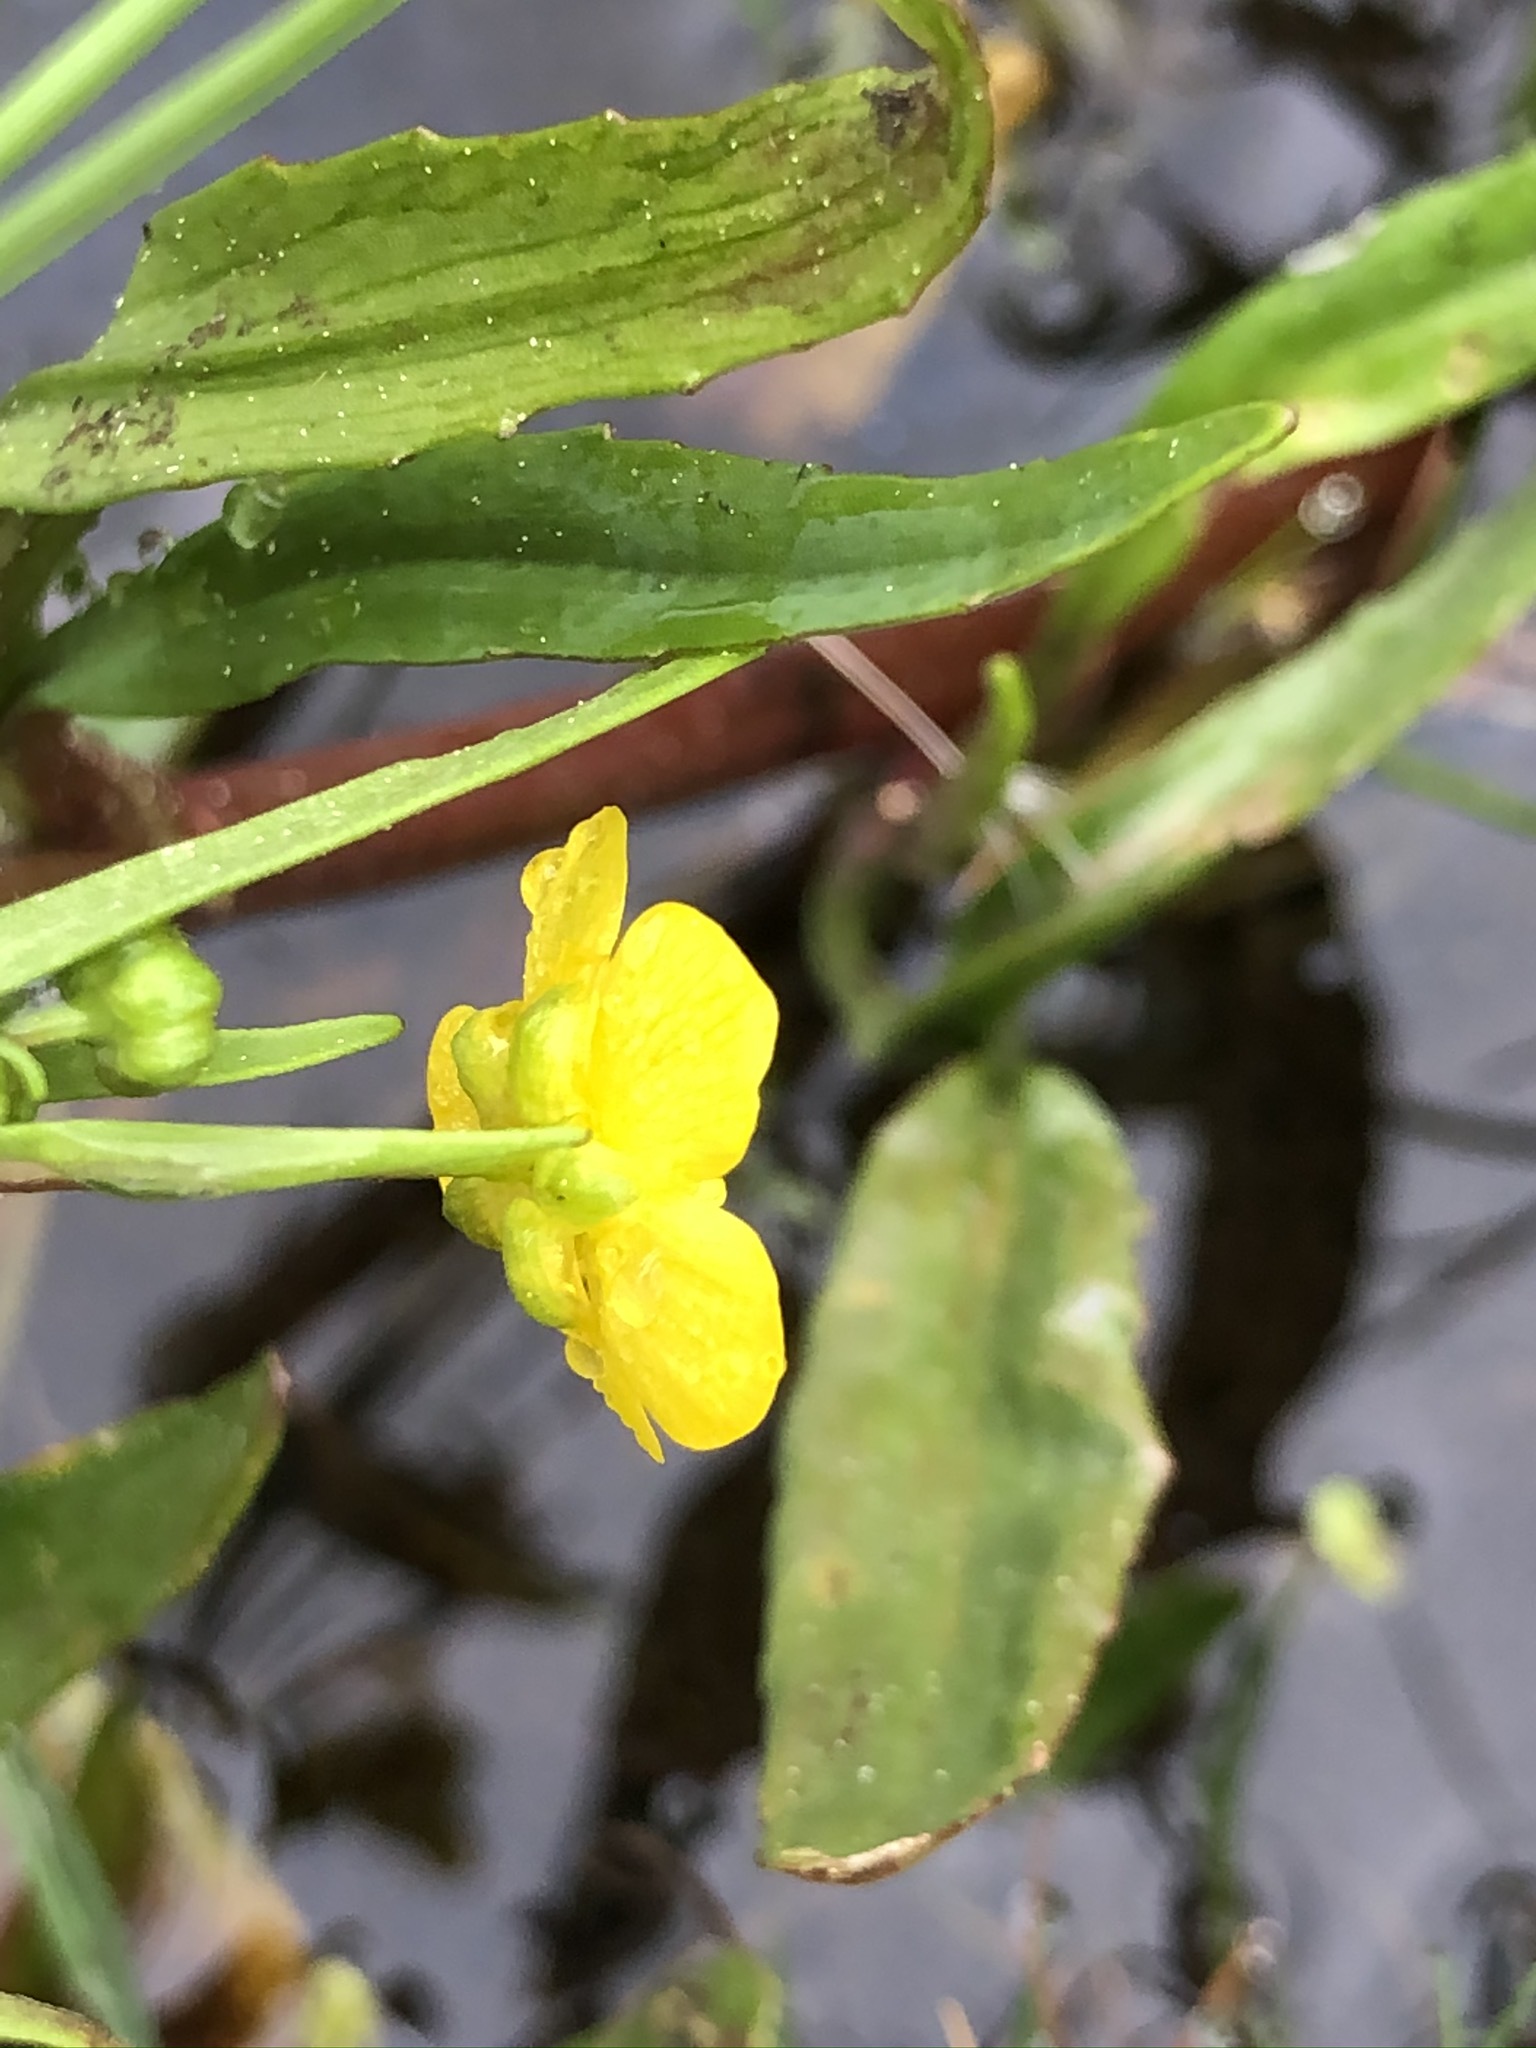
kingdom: Plantae
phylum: Tracheophyta
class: Magnoliopsida
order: Ranunculales
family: Ranunculaceae
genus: Ranunculus
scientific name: Ranunculus lingua
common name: Greater spearwort
